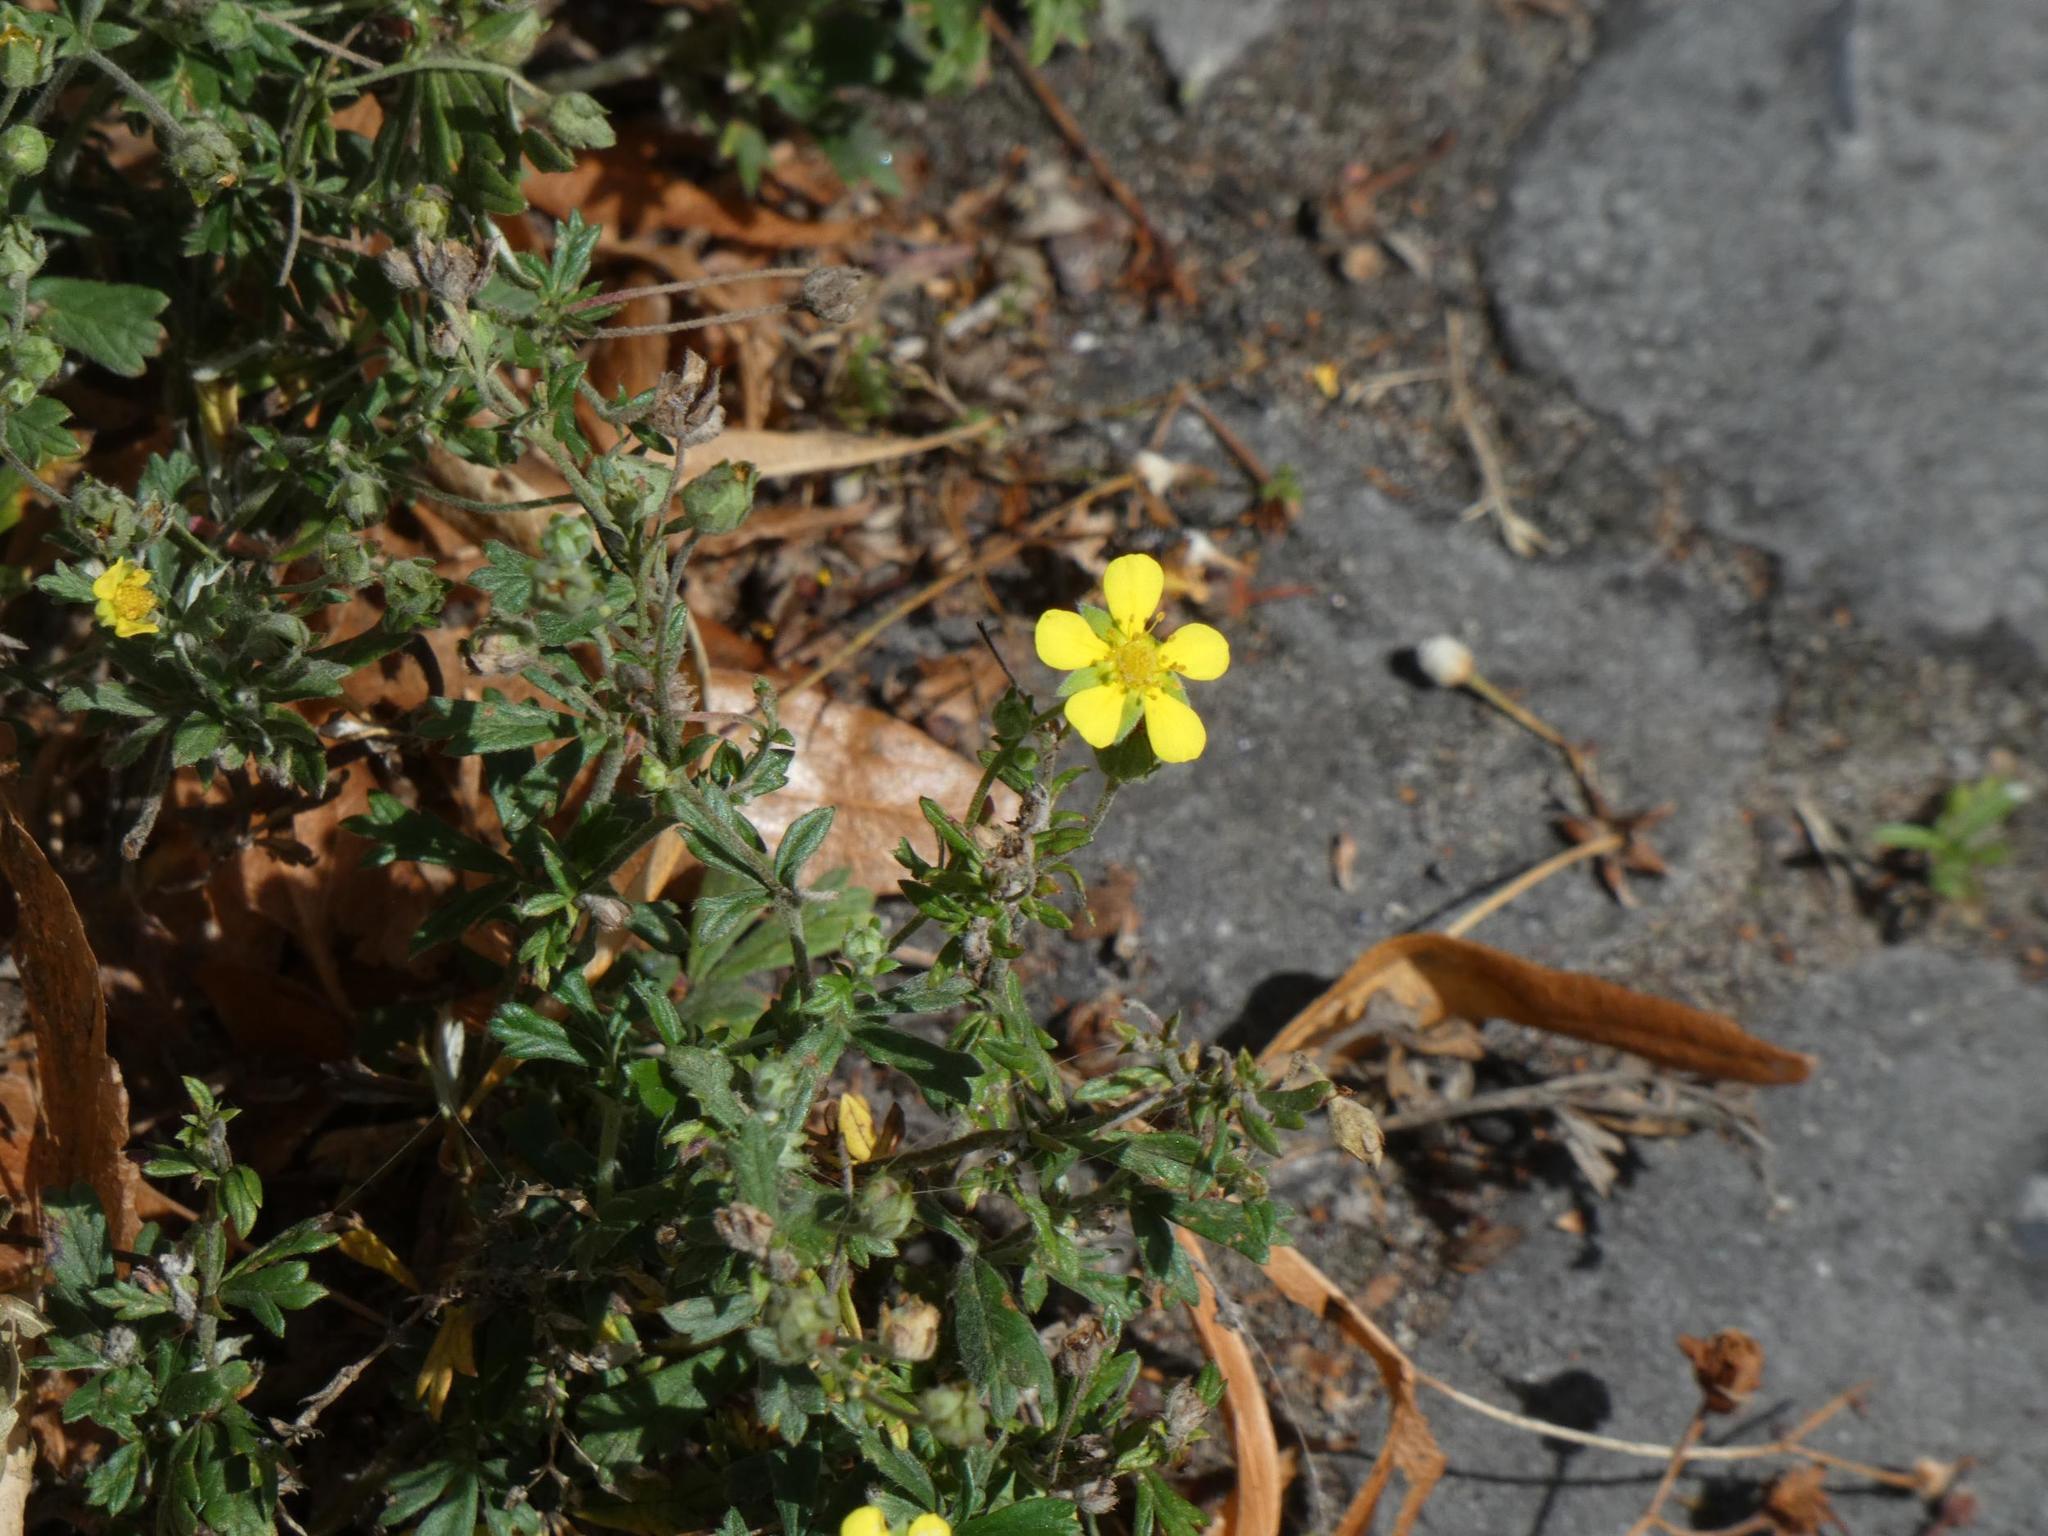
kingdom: Plantae
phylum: Tracheophyta
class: Magnoliopsida
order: Rosales
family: Rosaceae
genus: Potentilla
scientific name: Potentilla argentea
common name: Hoary cinquefoil
